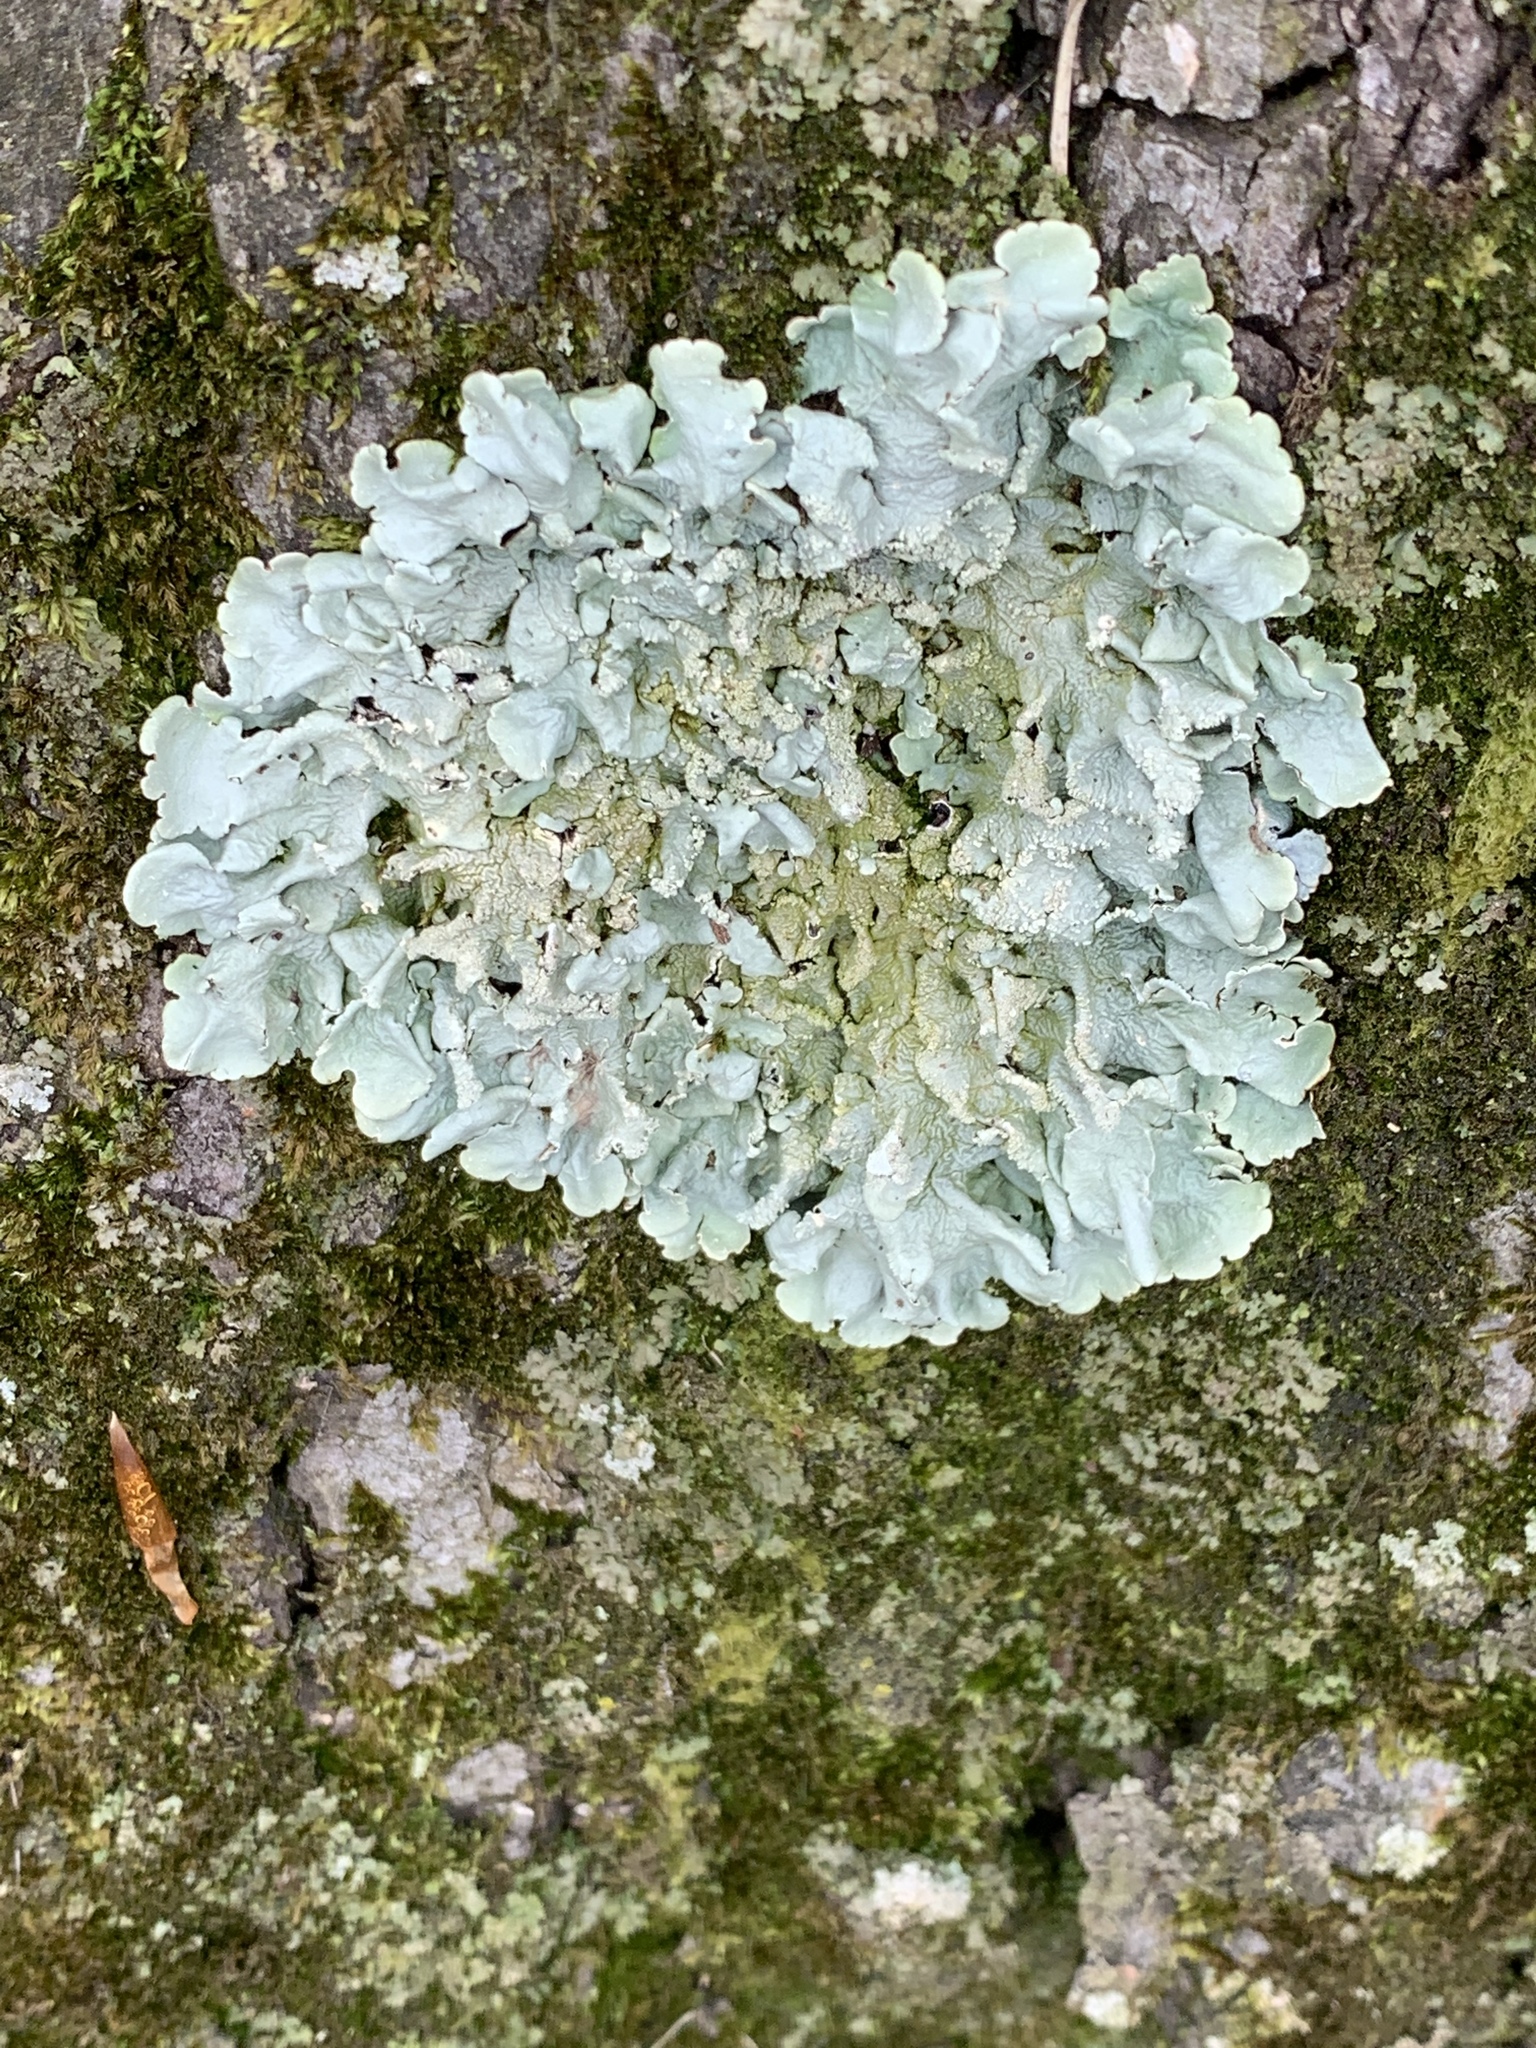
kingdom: Fungi
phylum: Ascomycota
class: Lecanoromycetes
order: Lecanorales
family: Parmeliaceae
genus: Flavoparmelia
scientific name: Flavoparmelia caperata
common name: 40-mile per hour lichen
